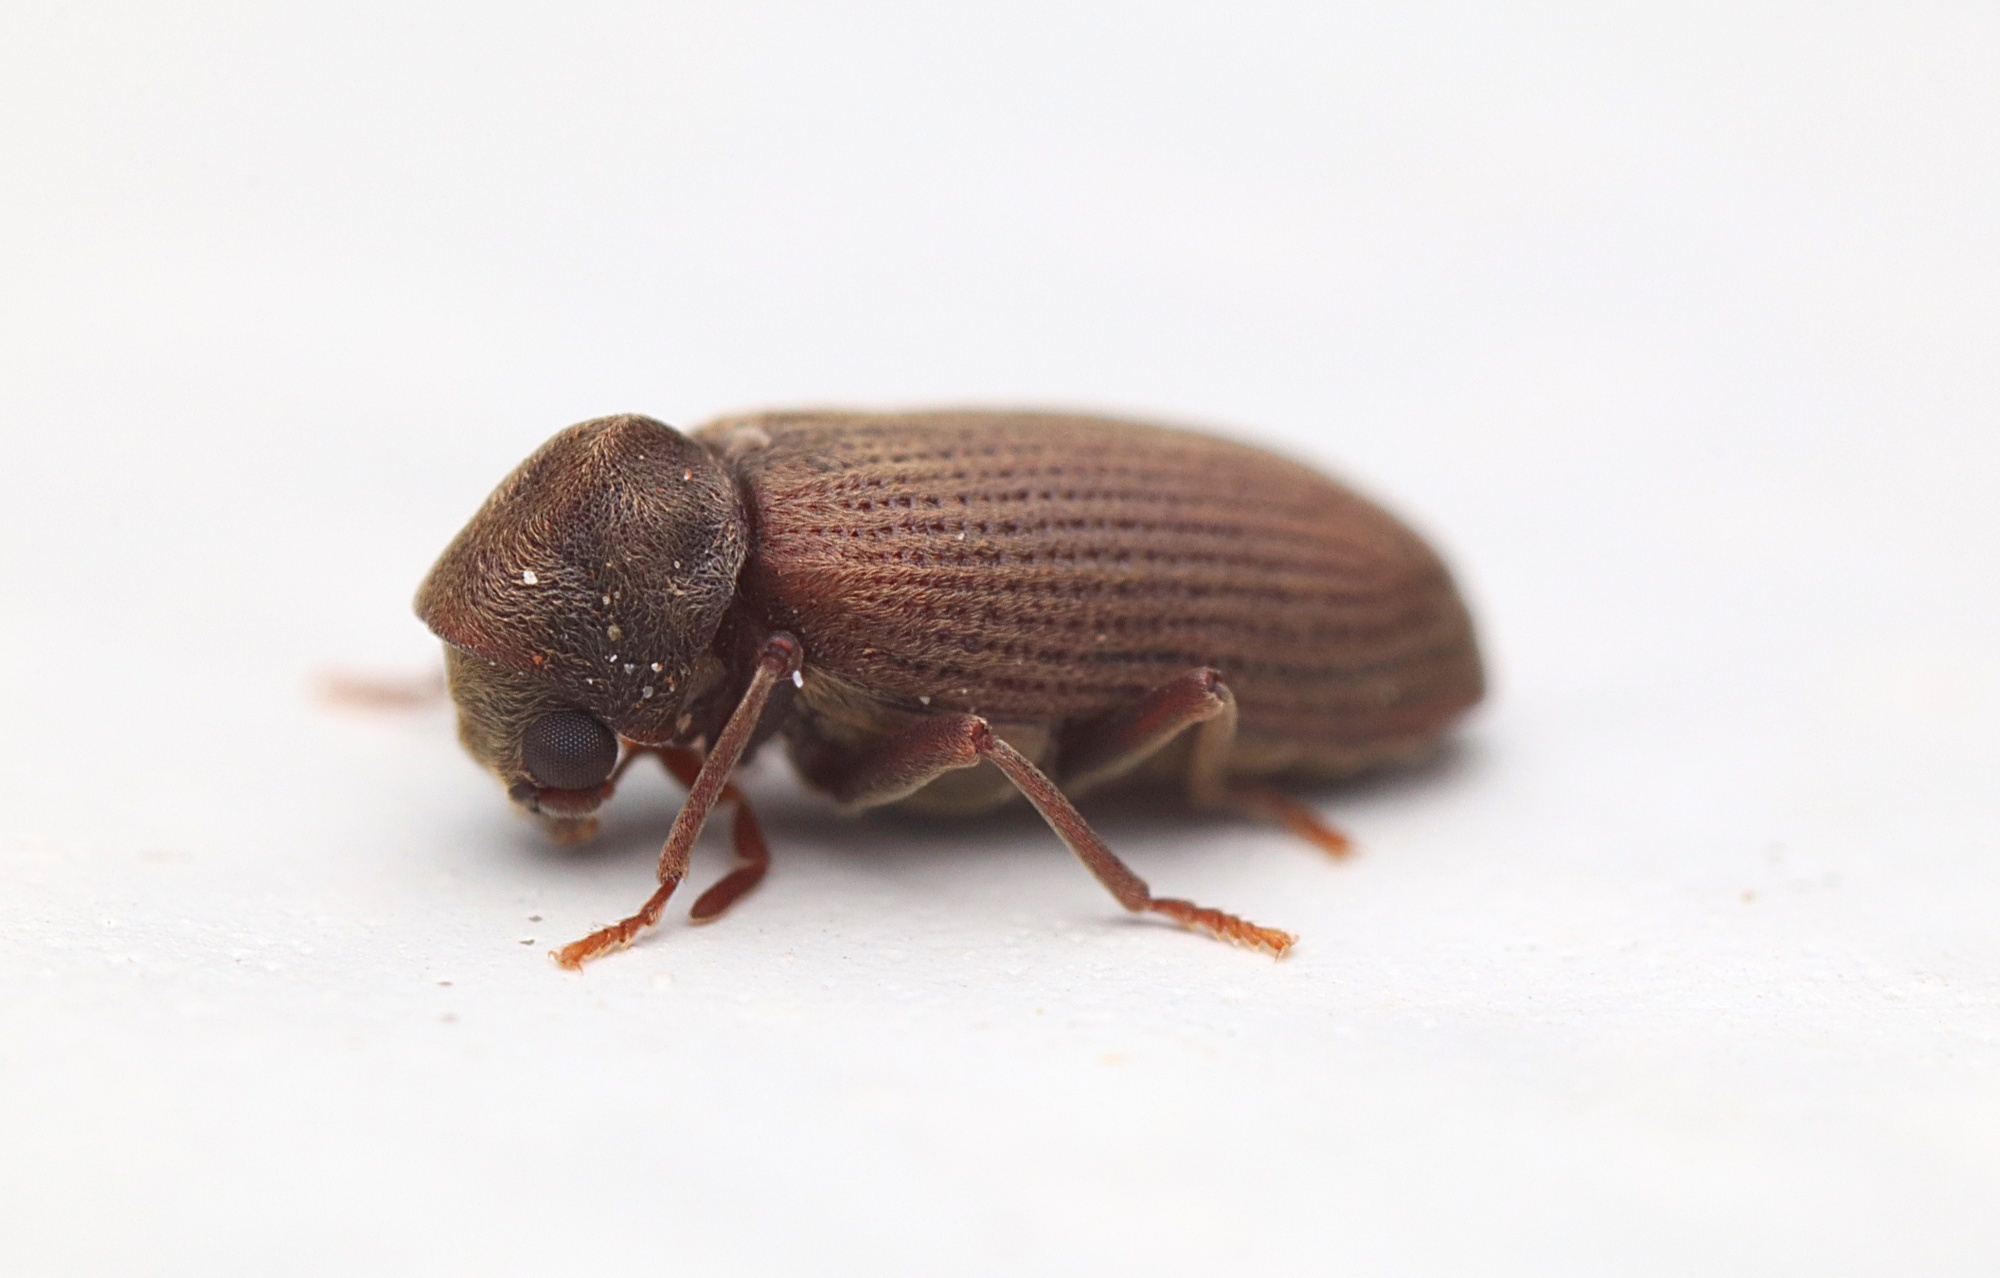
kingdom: Animalia
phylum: Arthropoda
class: Insecta
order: Coleoptera
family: Anobiidae
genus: Anobium
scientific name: Anobium punctatum
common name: Furniture beetle
